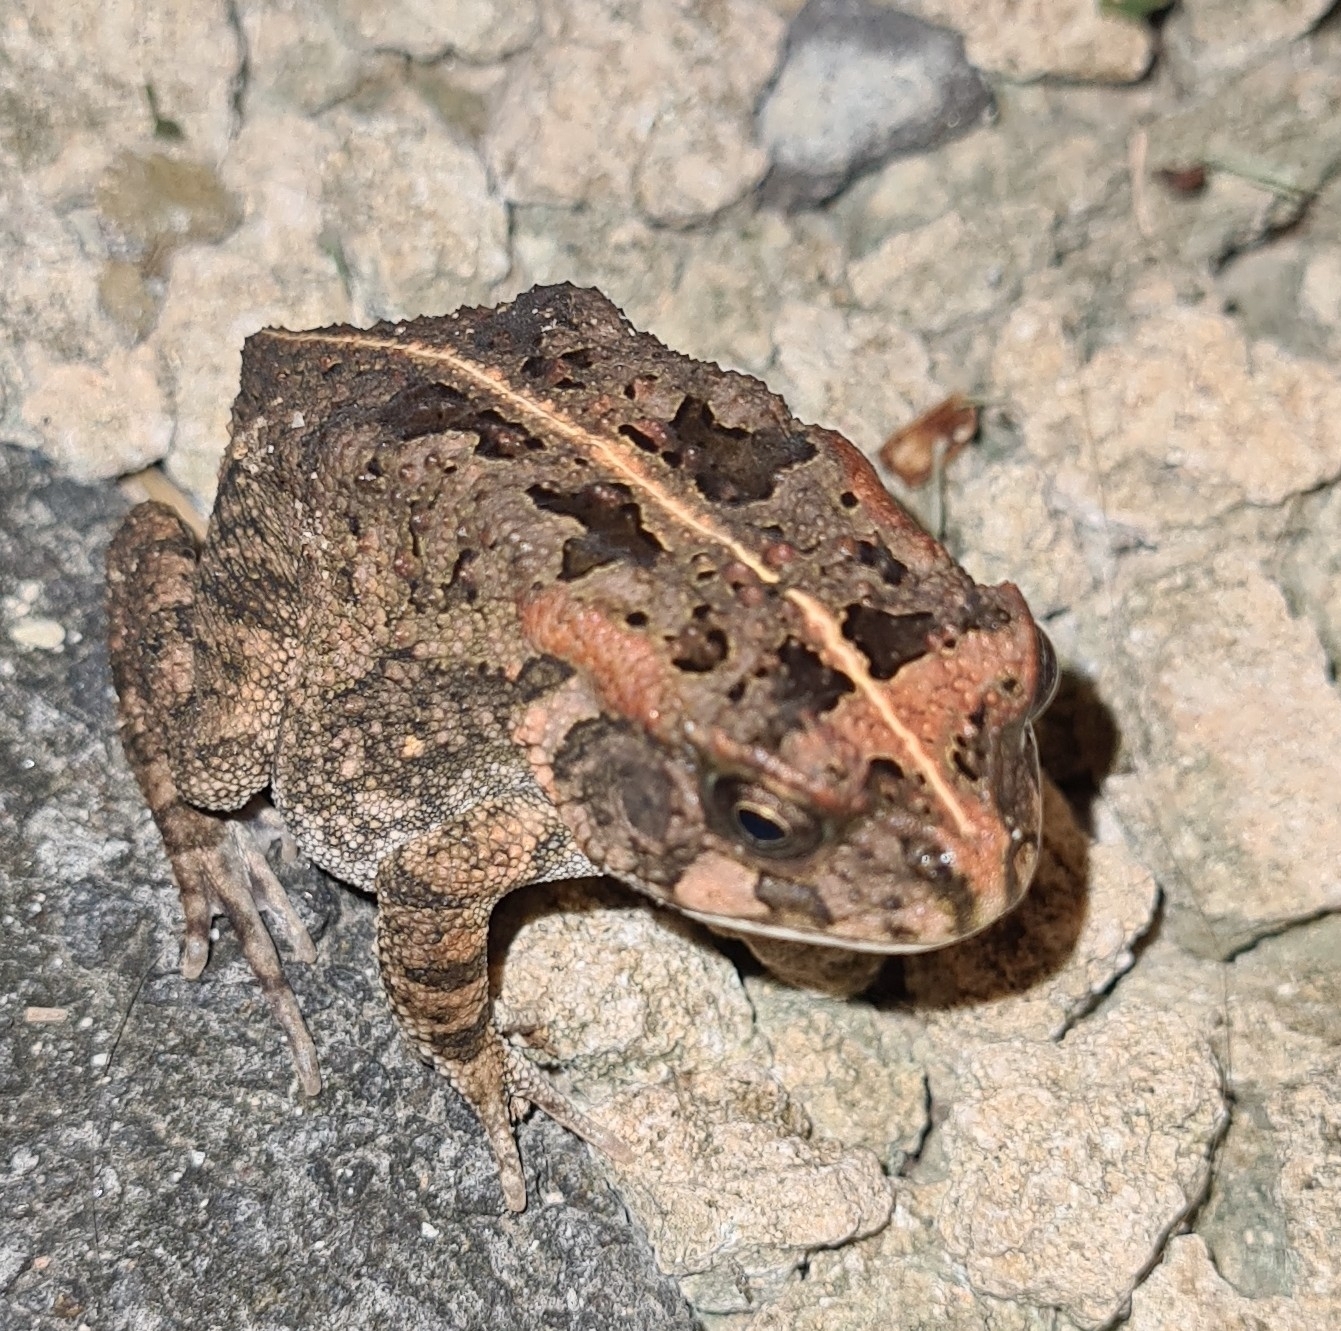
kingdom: Animalia
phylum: Chordata
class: Amphibia
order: Anura
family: Bufonidae
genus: Sclerophrys
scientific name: Sclerophrys gutturalis
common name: African common toad
